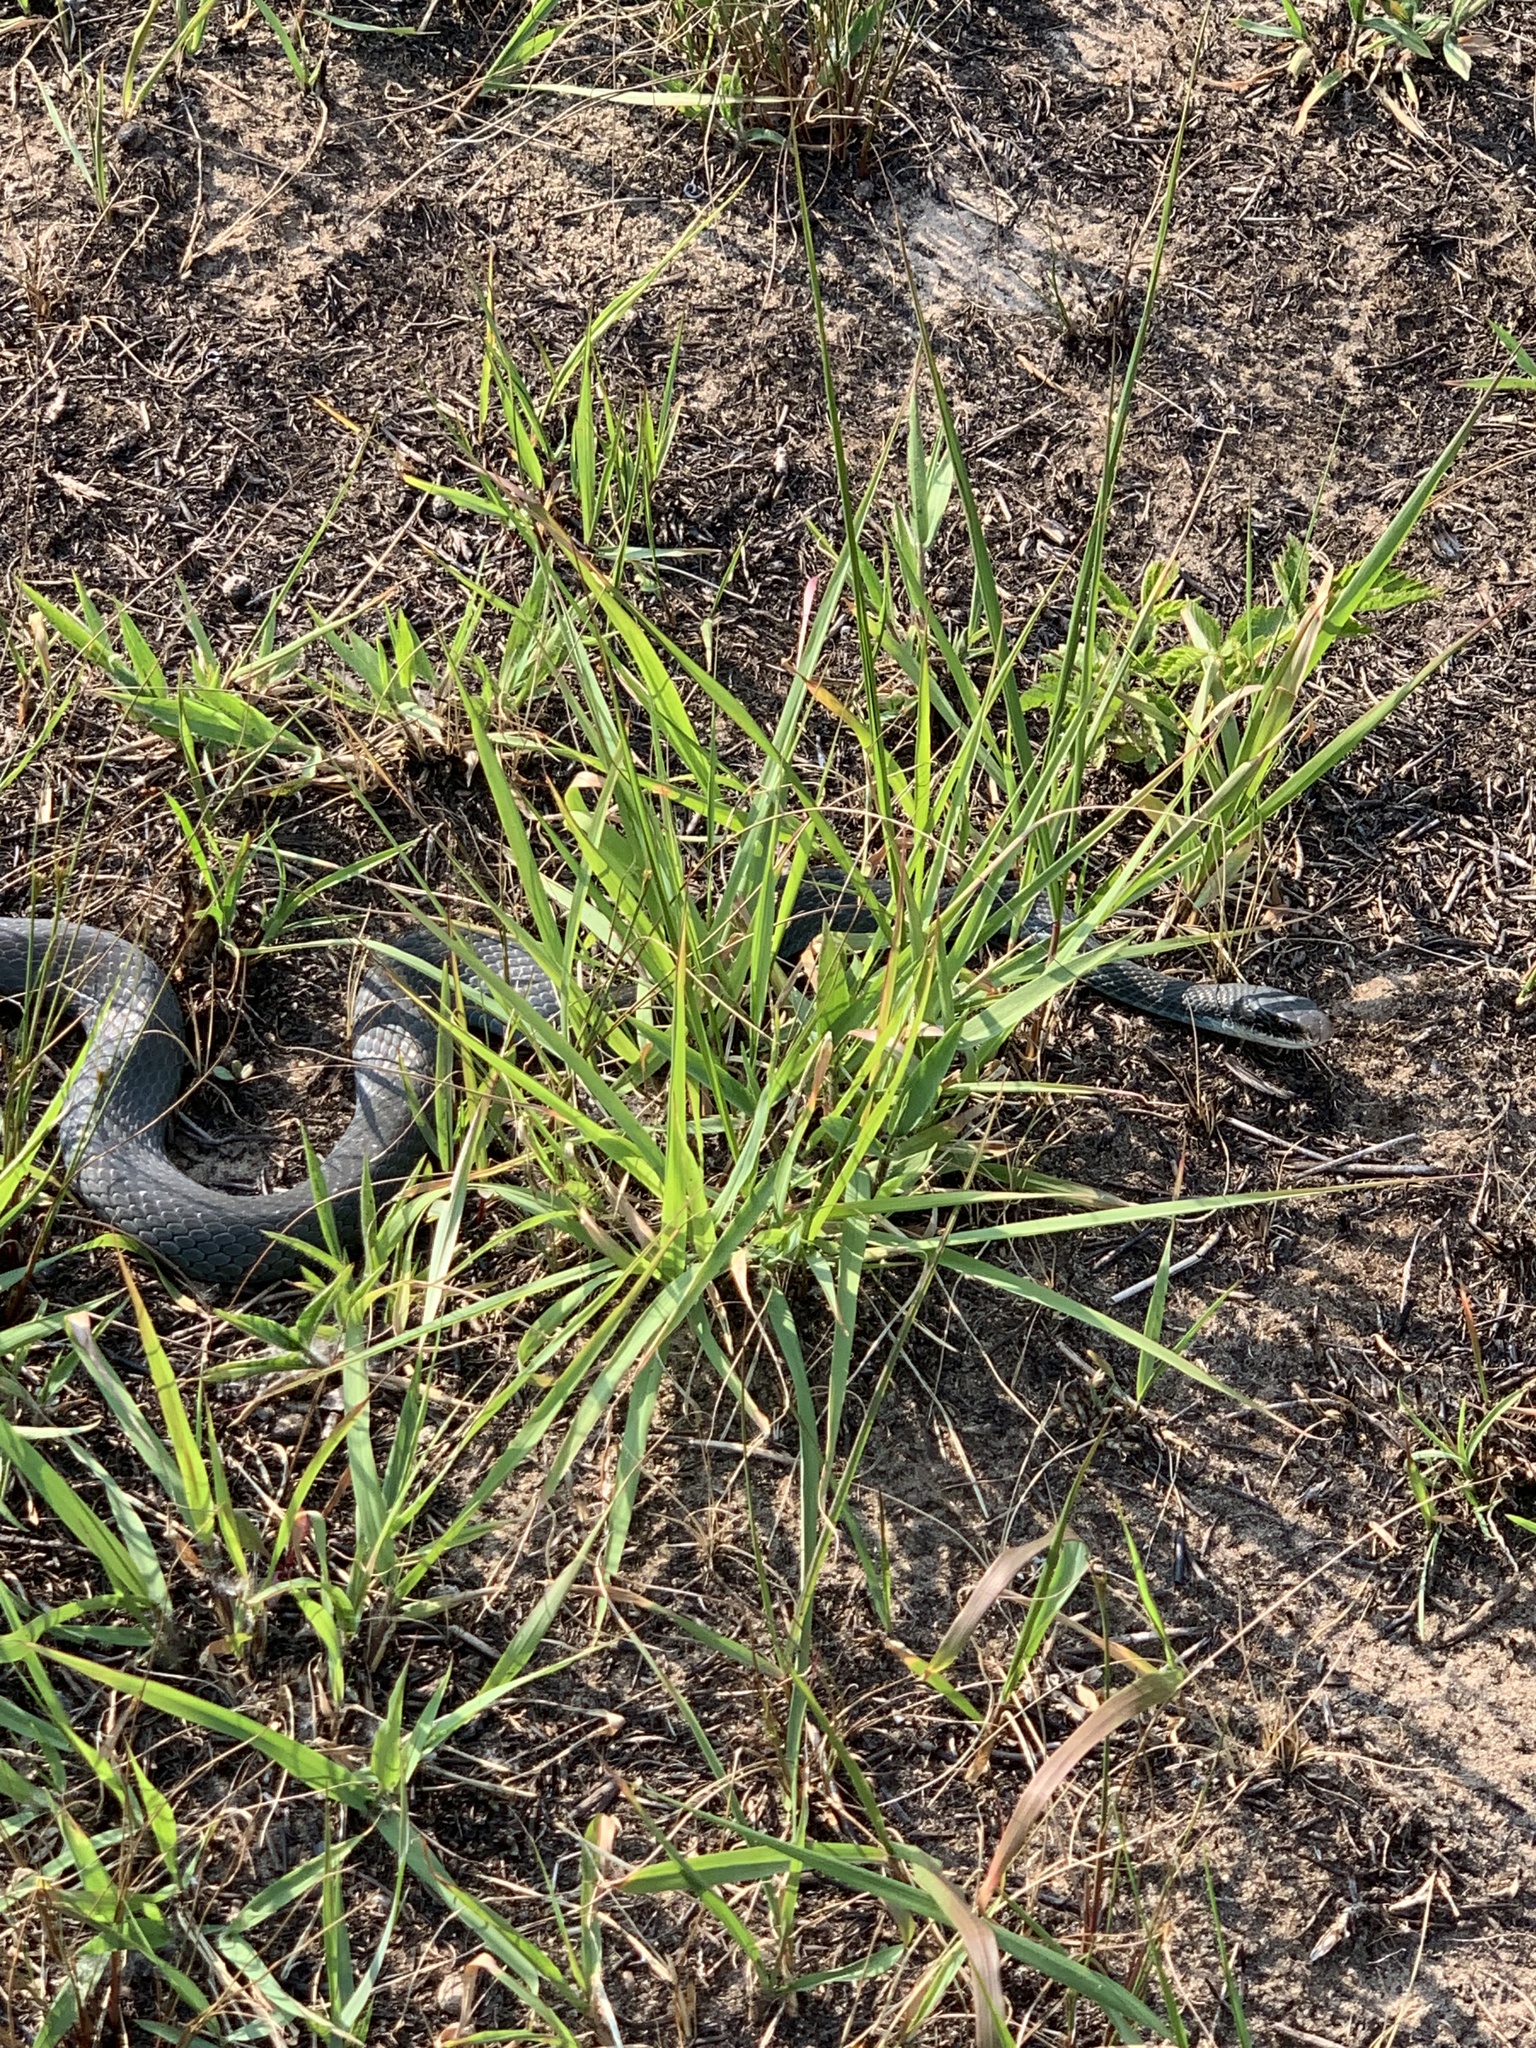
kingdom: Animalia
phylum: Chordata
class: Squamata
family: Colubridae
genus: Coluber
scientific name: Coluber constrictor
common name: Eastern racer
